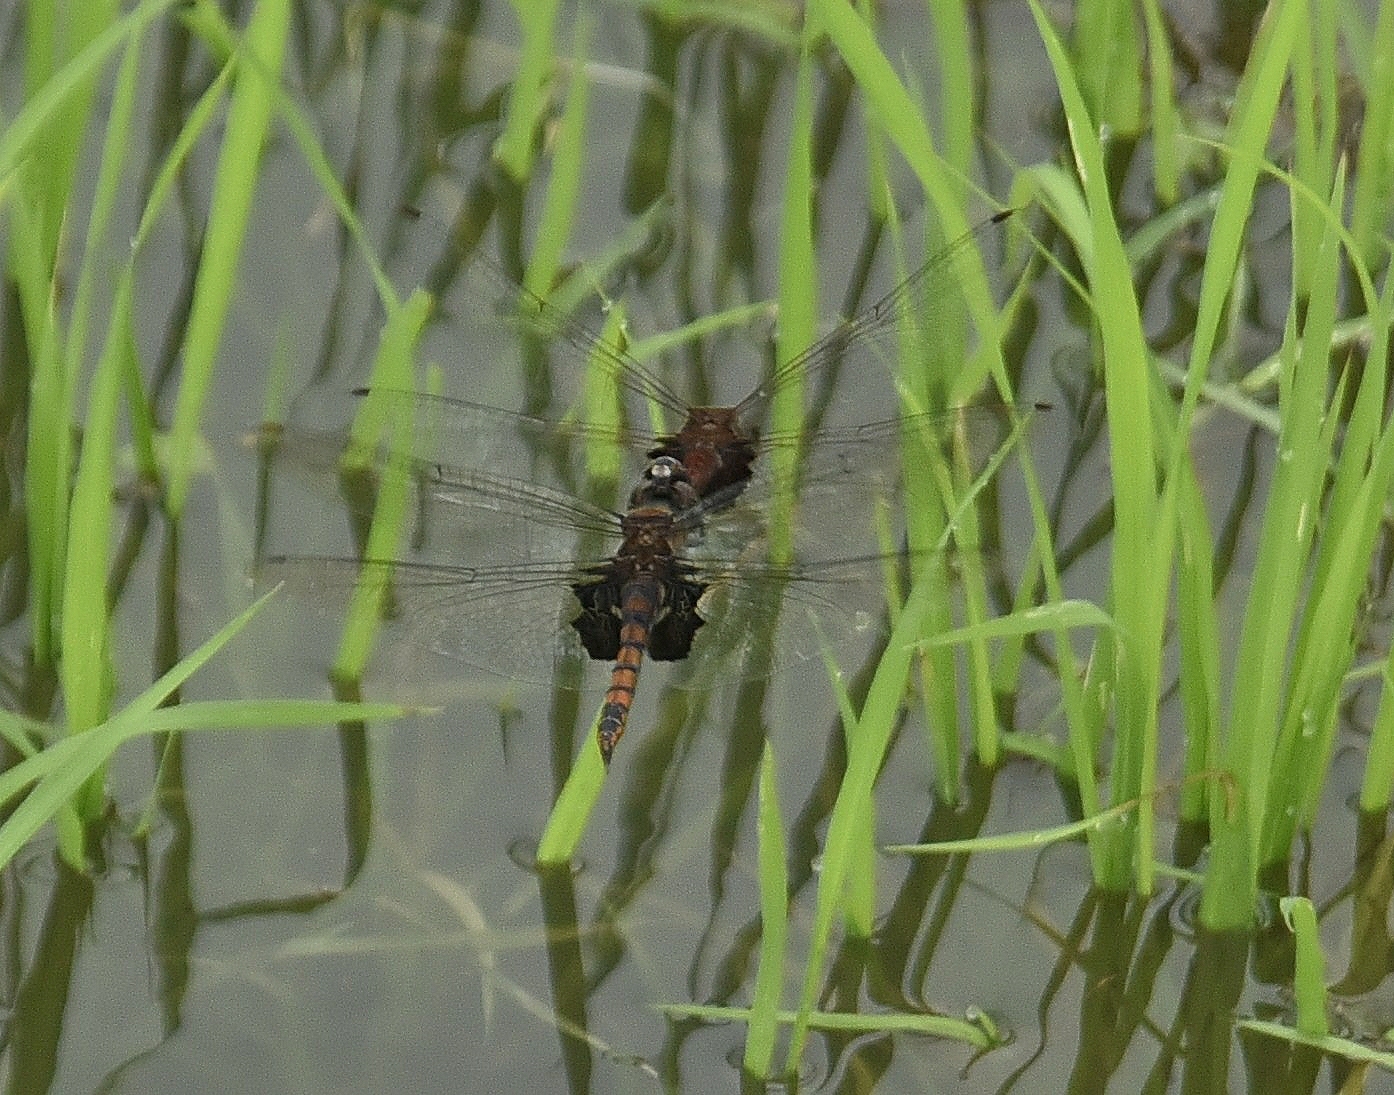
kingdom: Animalia
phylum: Arthropoda
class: Insecta
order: Odonata
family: Libellulidae
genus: Tramea
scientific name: Tramea limbata
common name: Ferruginous glider
